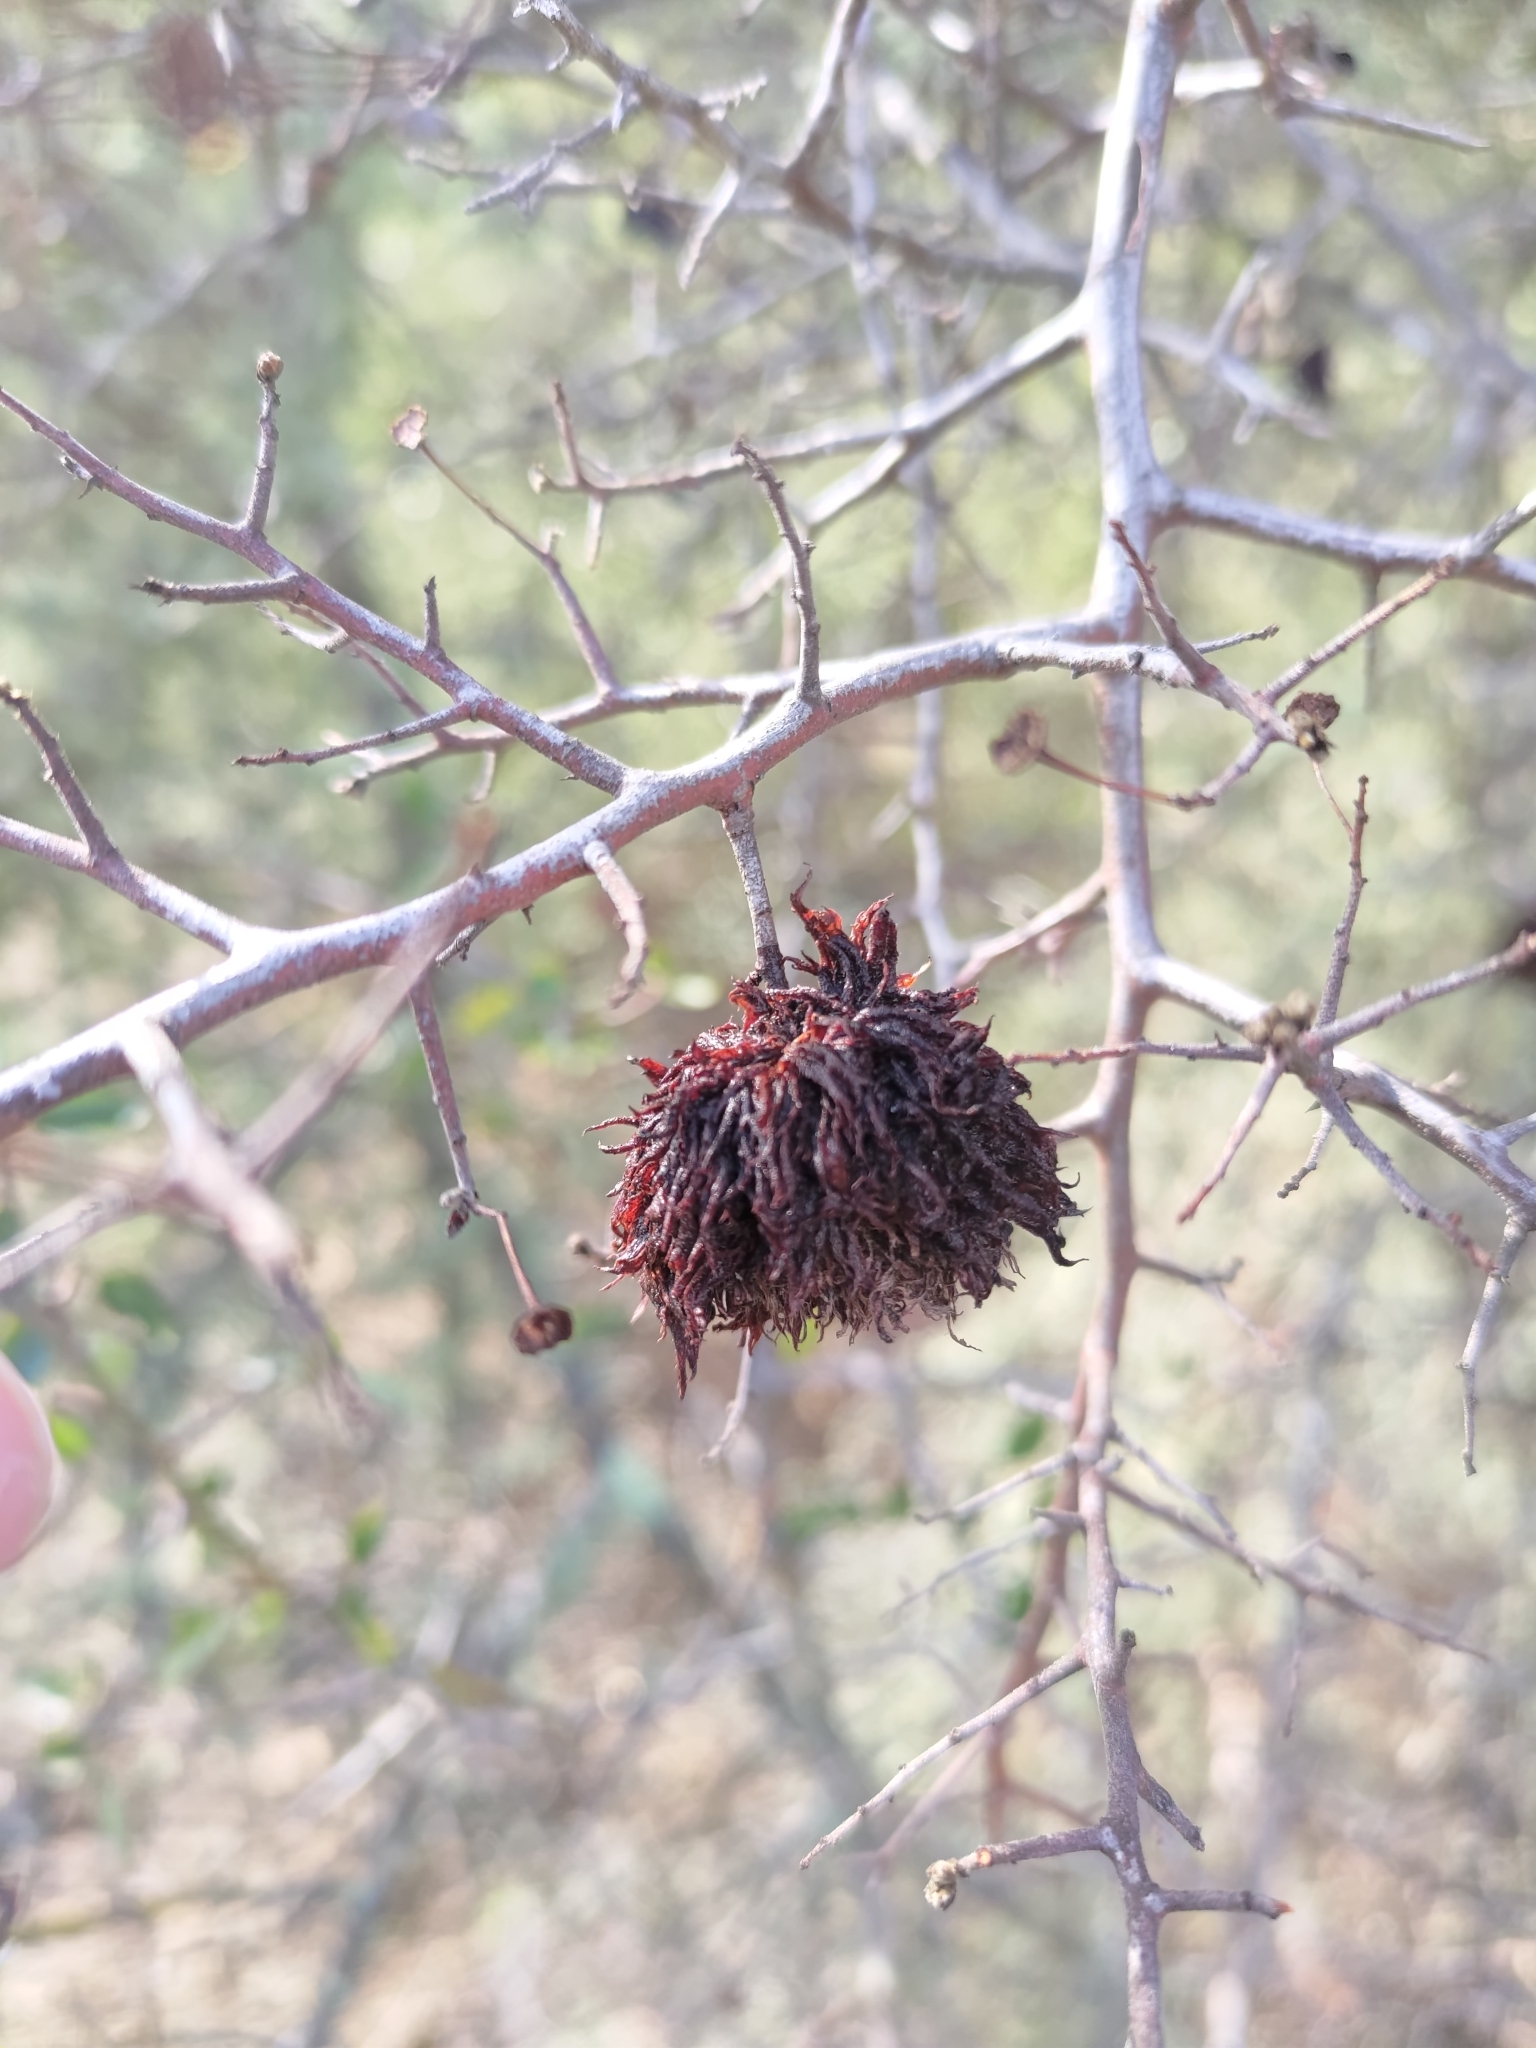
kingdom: Animalia
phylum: Arthropoda
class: Insecta
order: Diptera
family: Cecidomyiidae
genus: Asphondylia
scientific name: Asphondylia ceanothi
